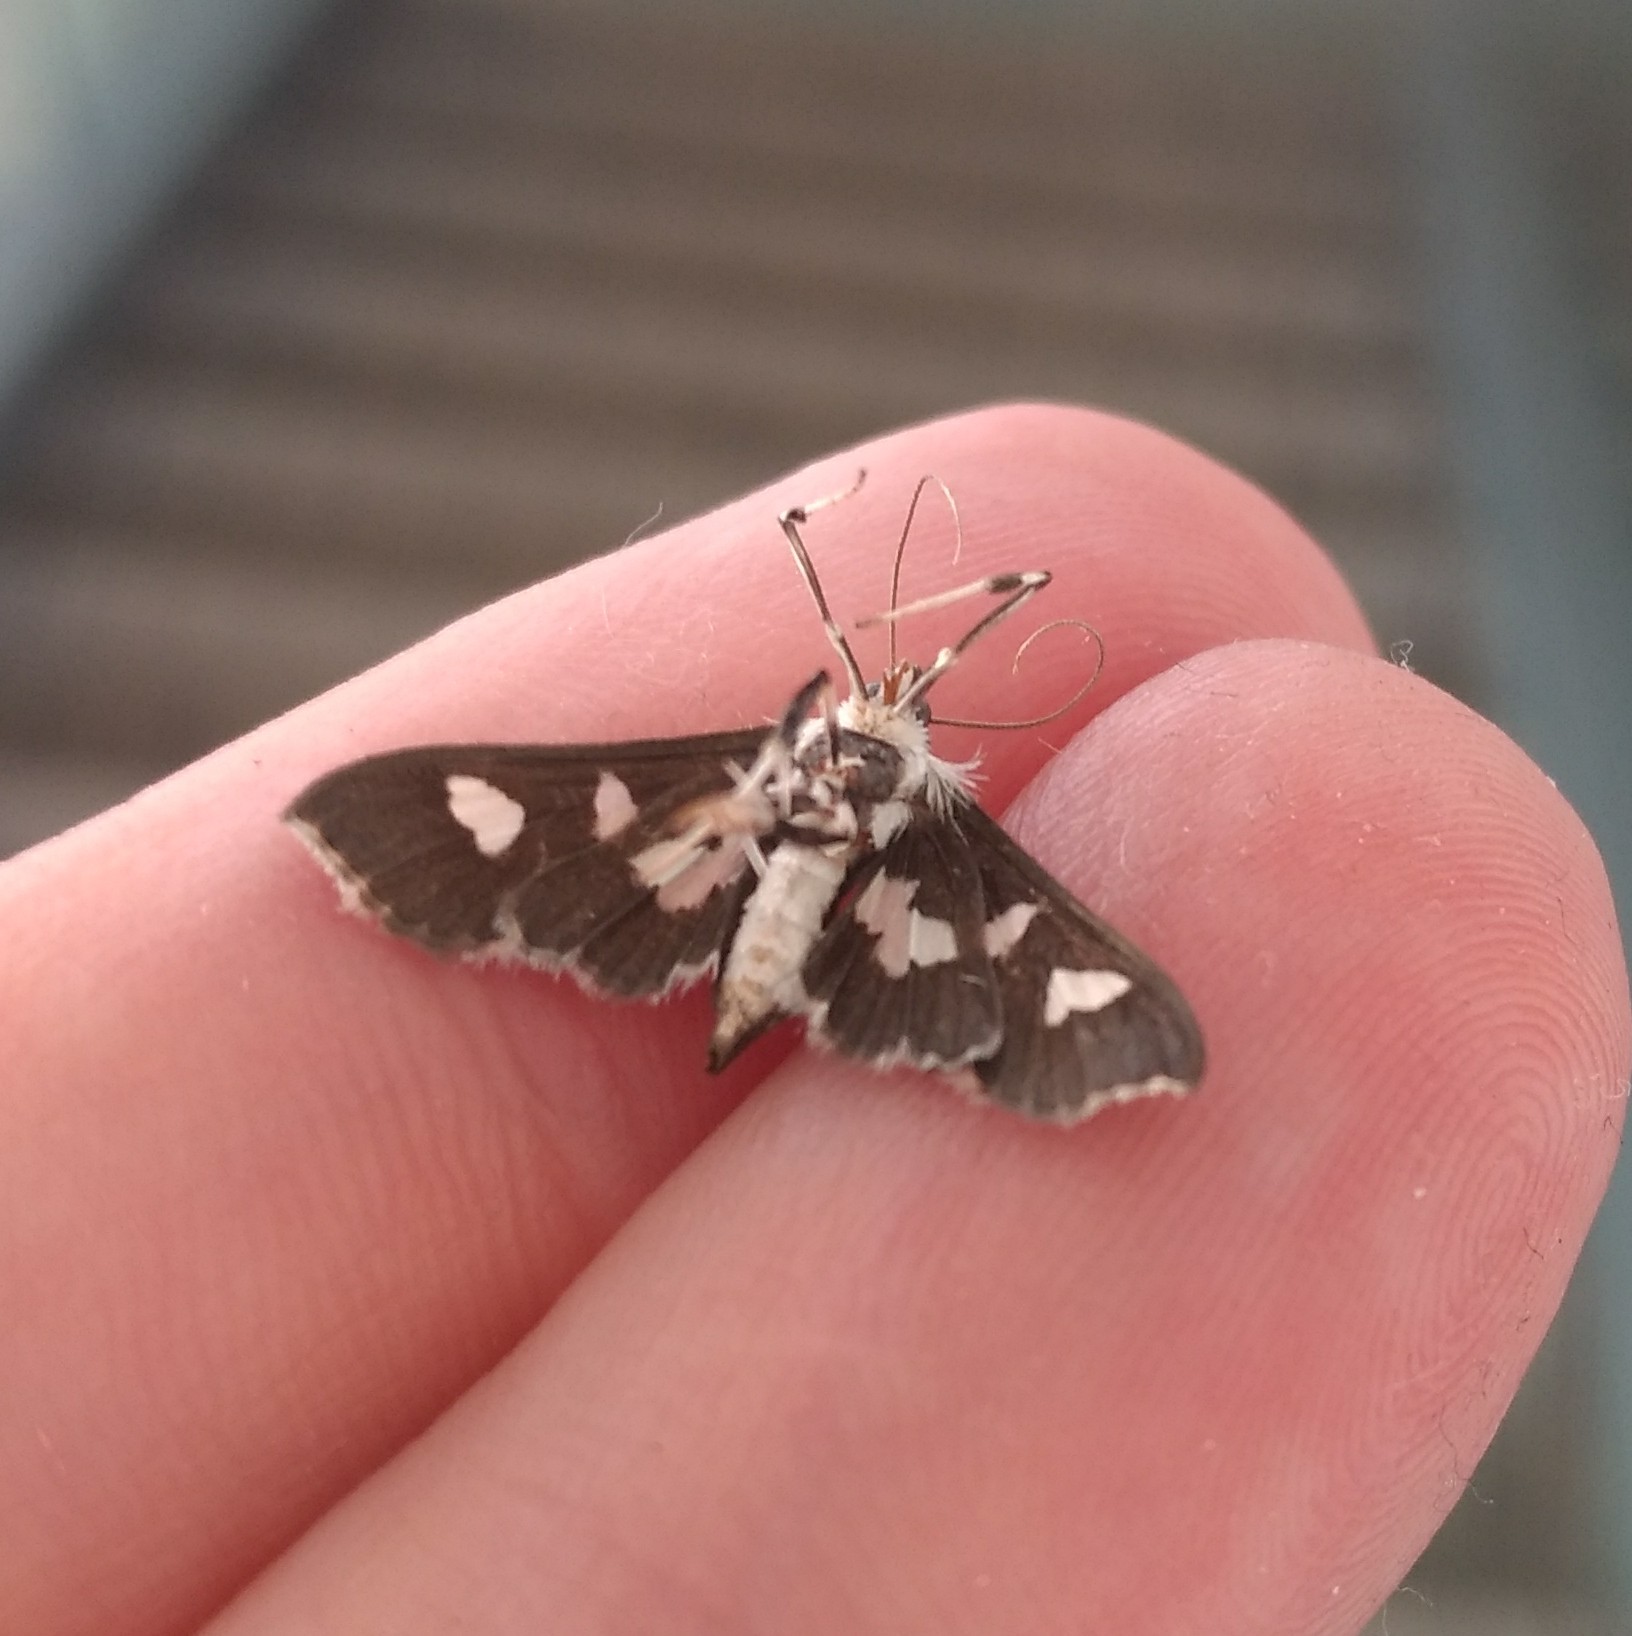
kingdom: Animalia
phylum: Arthropoda
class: Insecta
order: Lepidoptera
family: Crambidae
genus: Desmia
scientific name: Desmia funeralis
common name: Grape leaf folder moth
